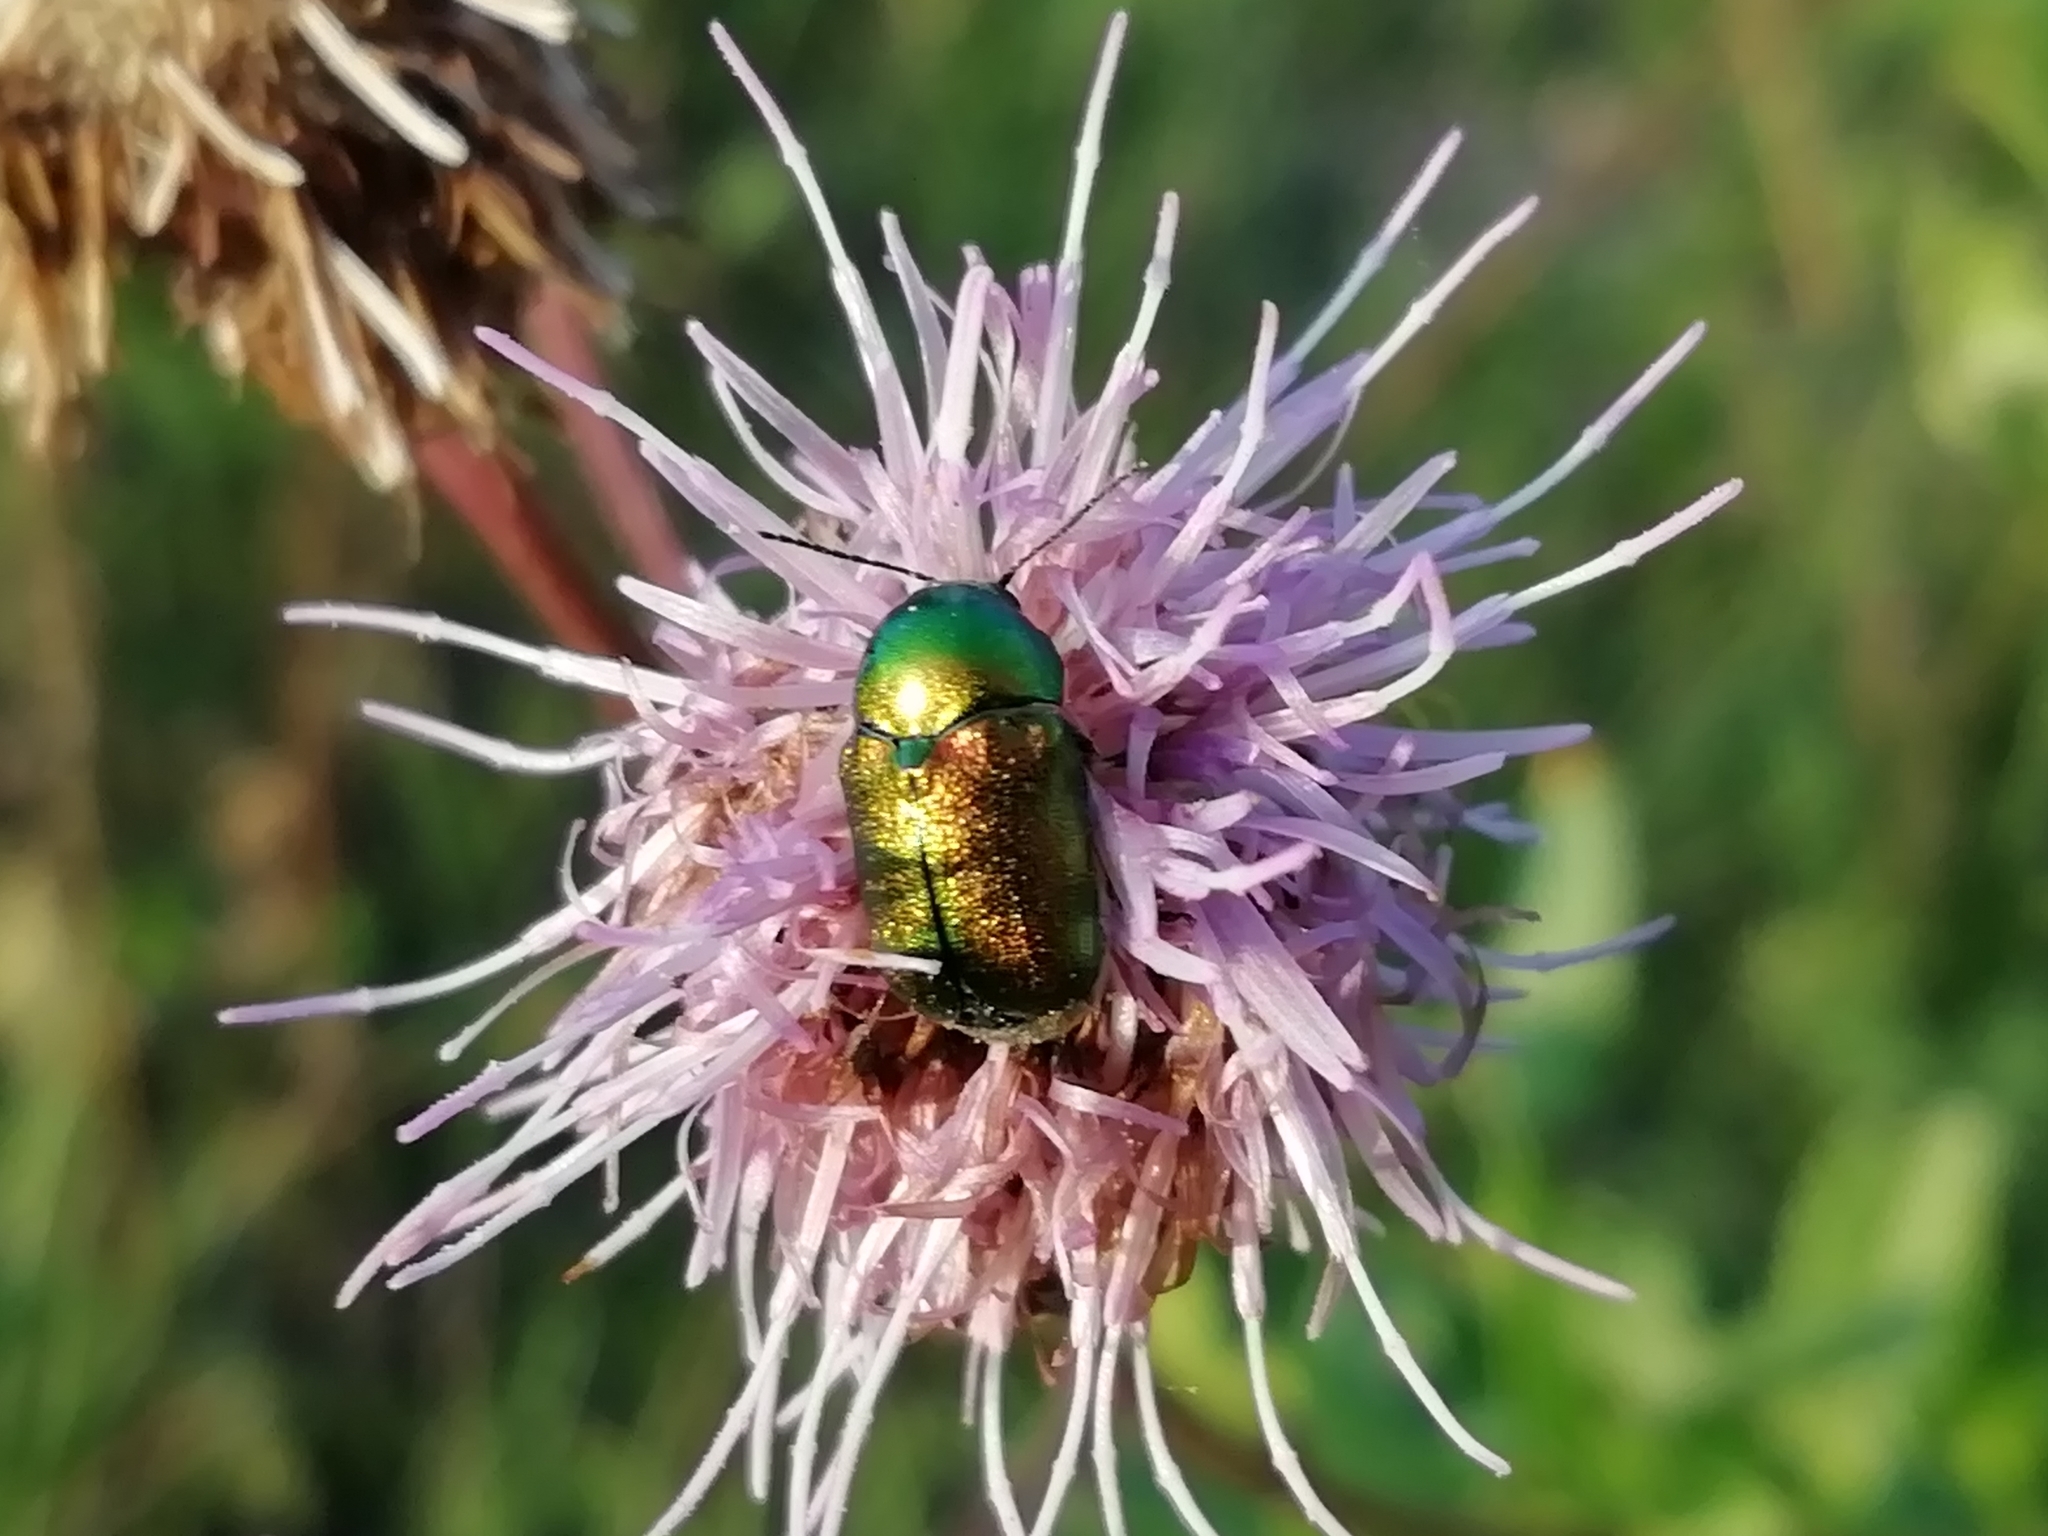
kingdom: Animalia
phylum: Arthropoda
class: Insecta
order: Coleoptera
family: Chrysomelidae
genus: Cryptocephalus
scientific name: Cryptocephalus sericeus
